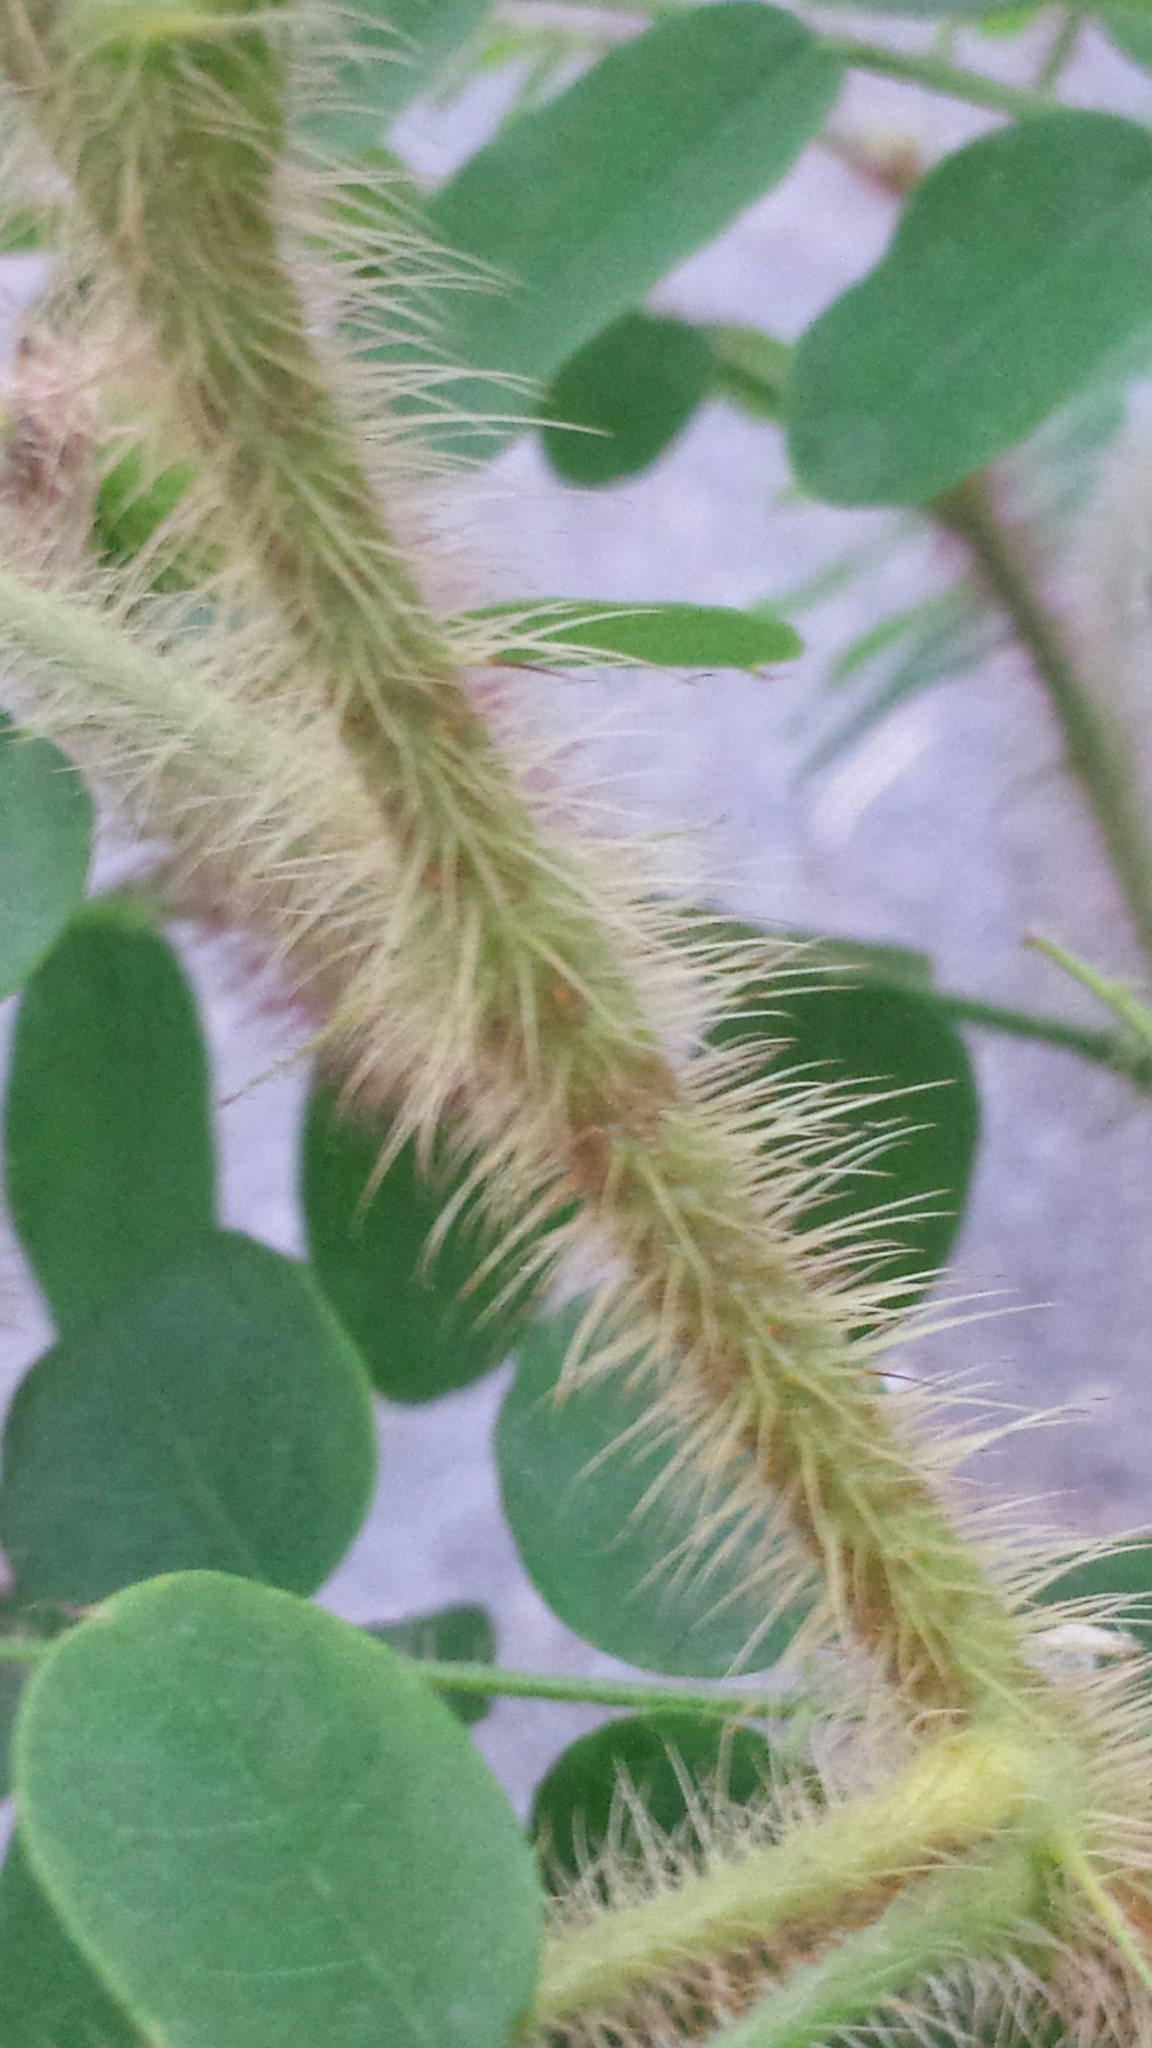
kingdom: Plantae
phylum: Tracheophyta
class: Magnoliopsida
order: Fabales
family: Fabaceae
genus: Robinia
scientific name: Robinia hispida
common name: Bristly locust
